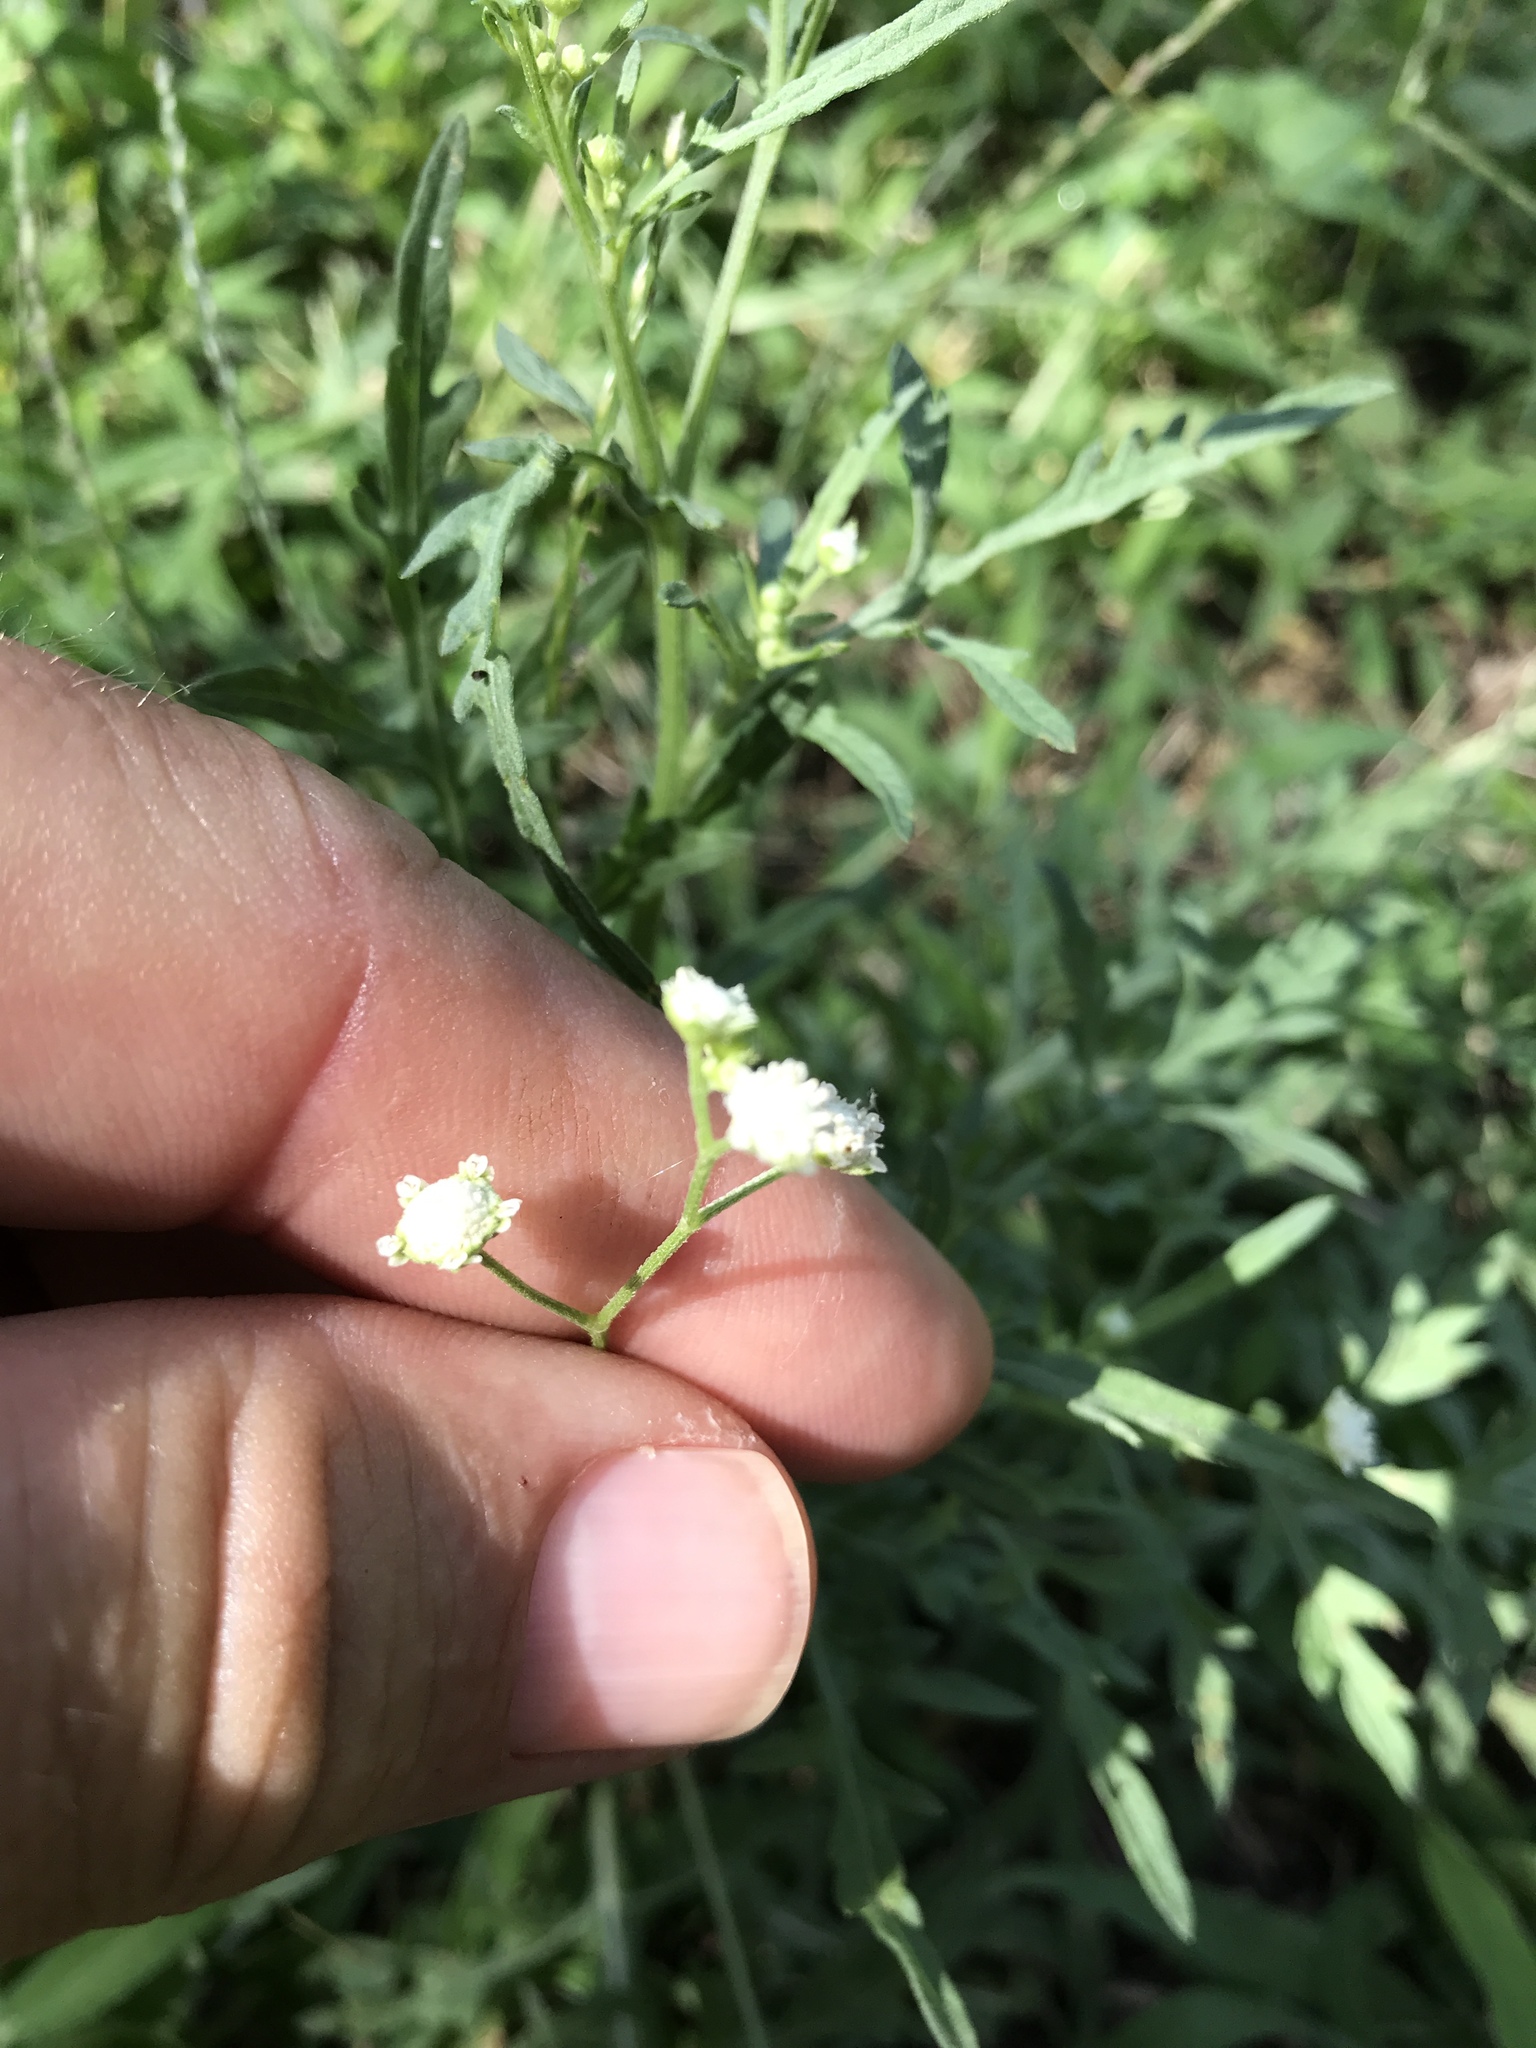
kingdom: Plantae
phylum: Tracheophyta
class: Magnoliopsida
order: Asterales
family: Asteraceae
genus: Parthenium
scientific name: Parthenium hysterophorus
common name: Santa maria feverfew
